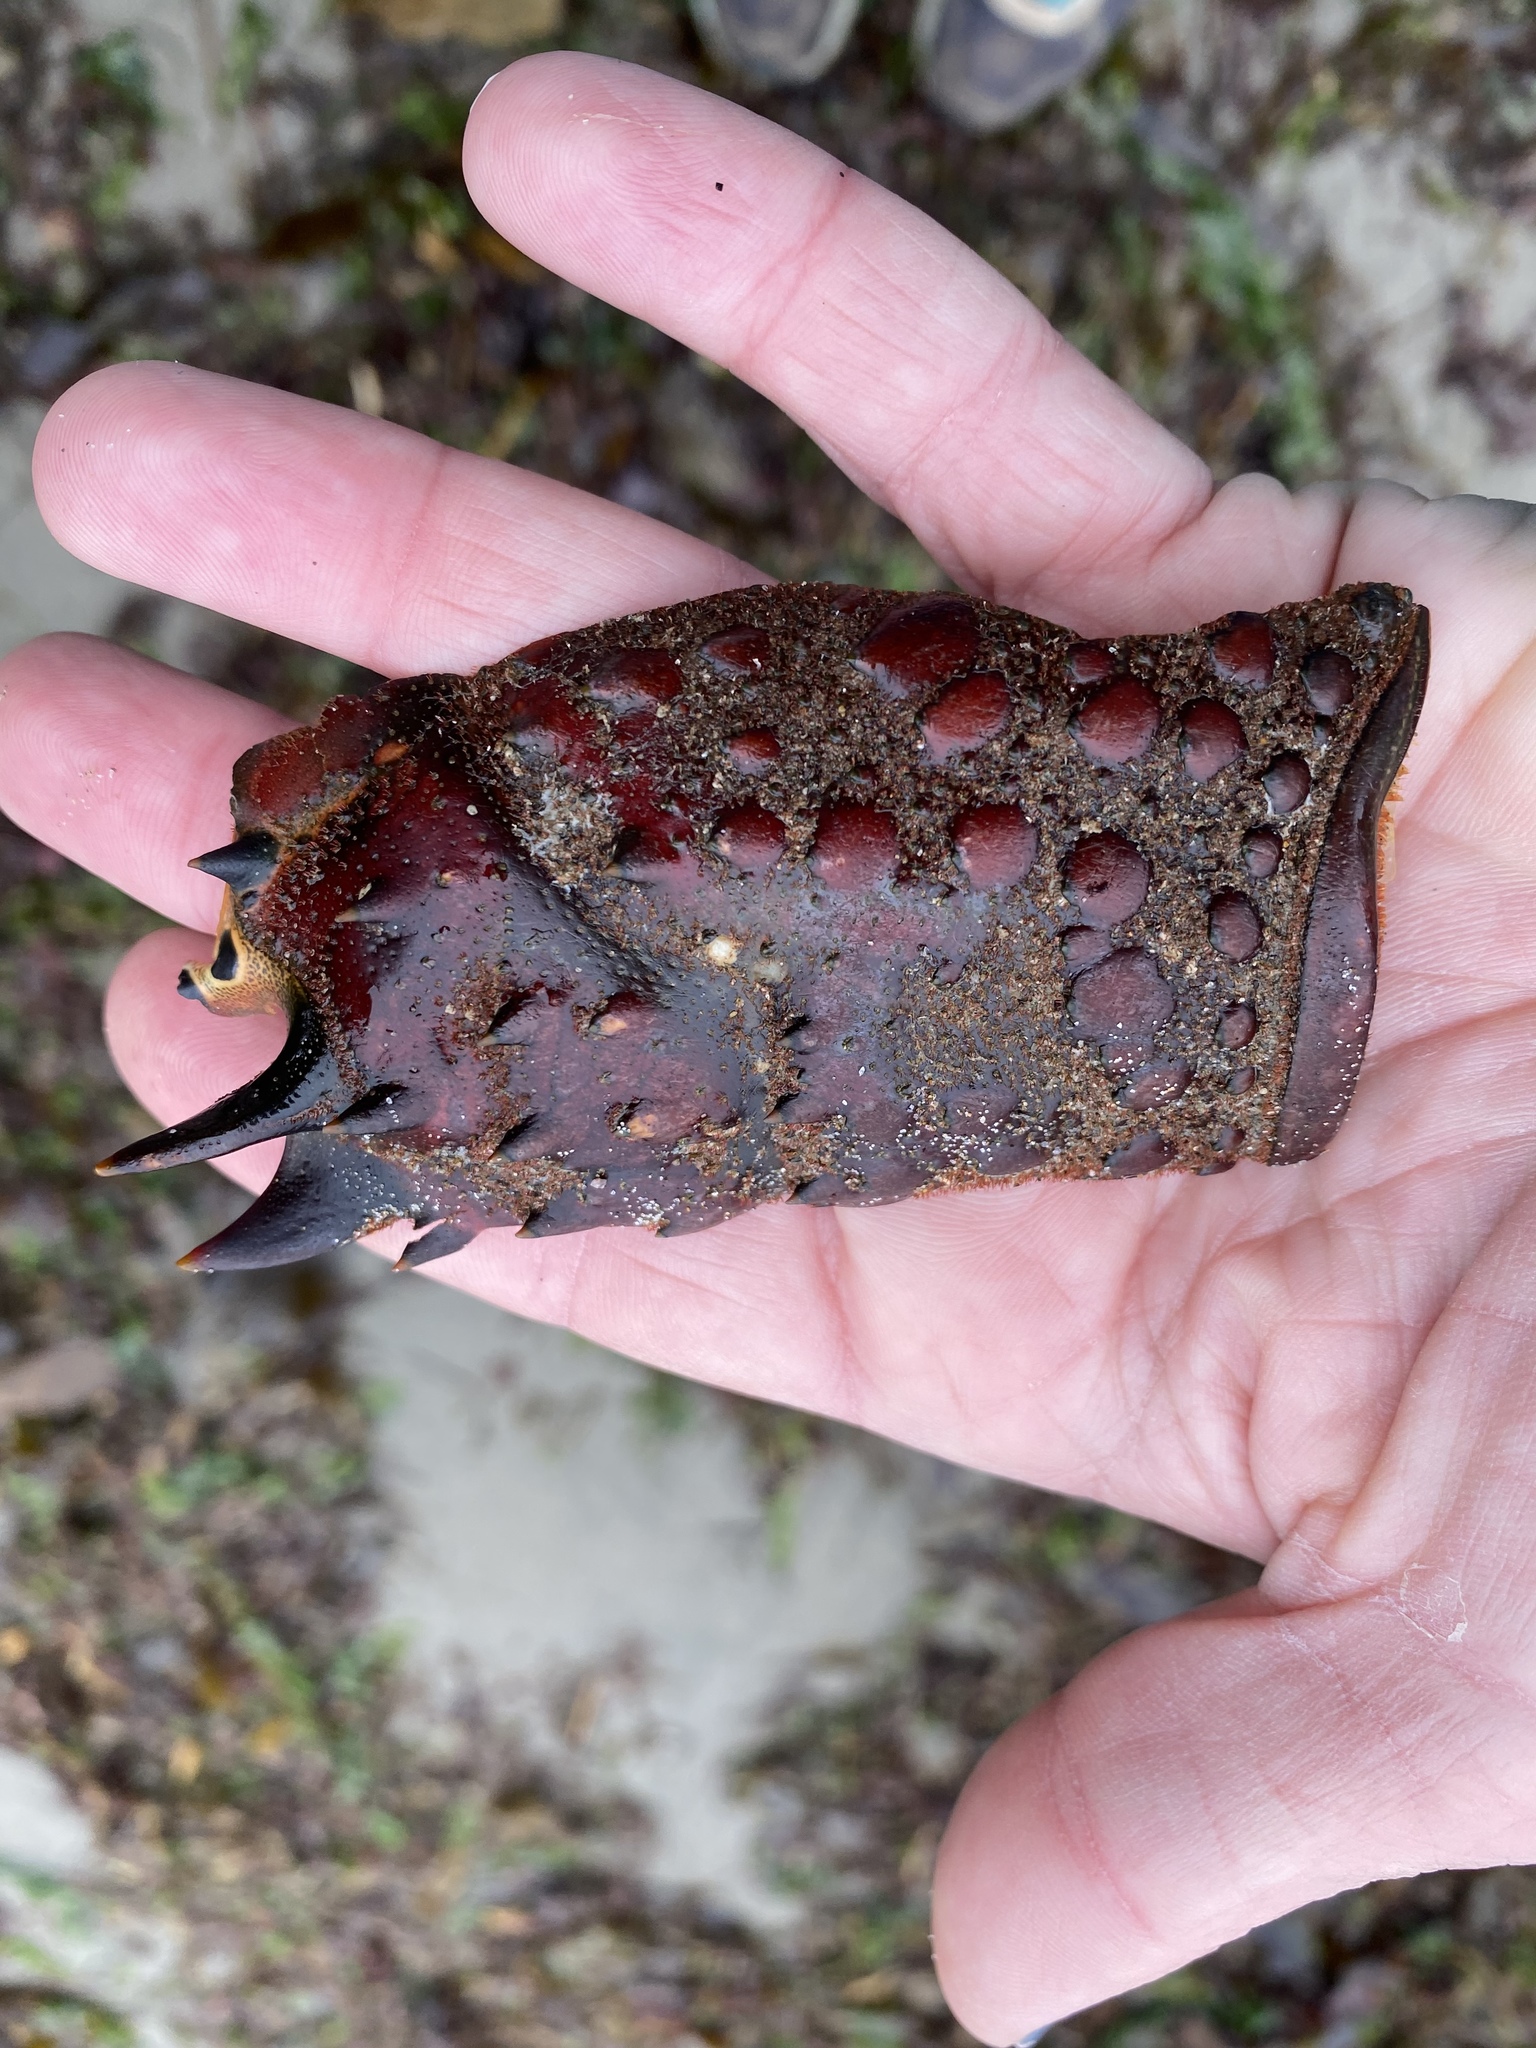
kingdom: Animalia
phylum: Arthropoda
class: Malacostraca
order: Decapoda
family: Palinuridae
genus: Panulirus
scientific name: Panulirus interruptus
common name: California spiny lobster
